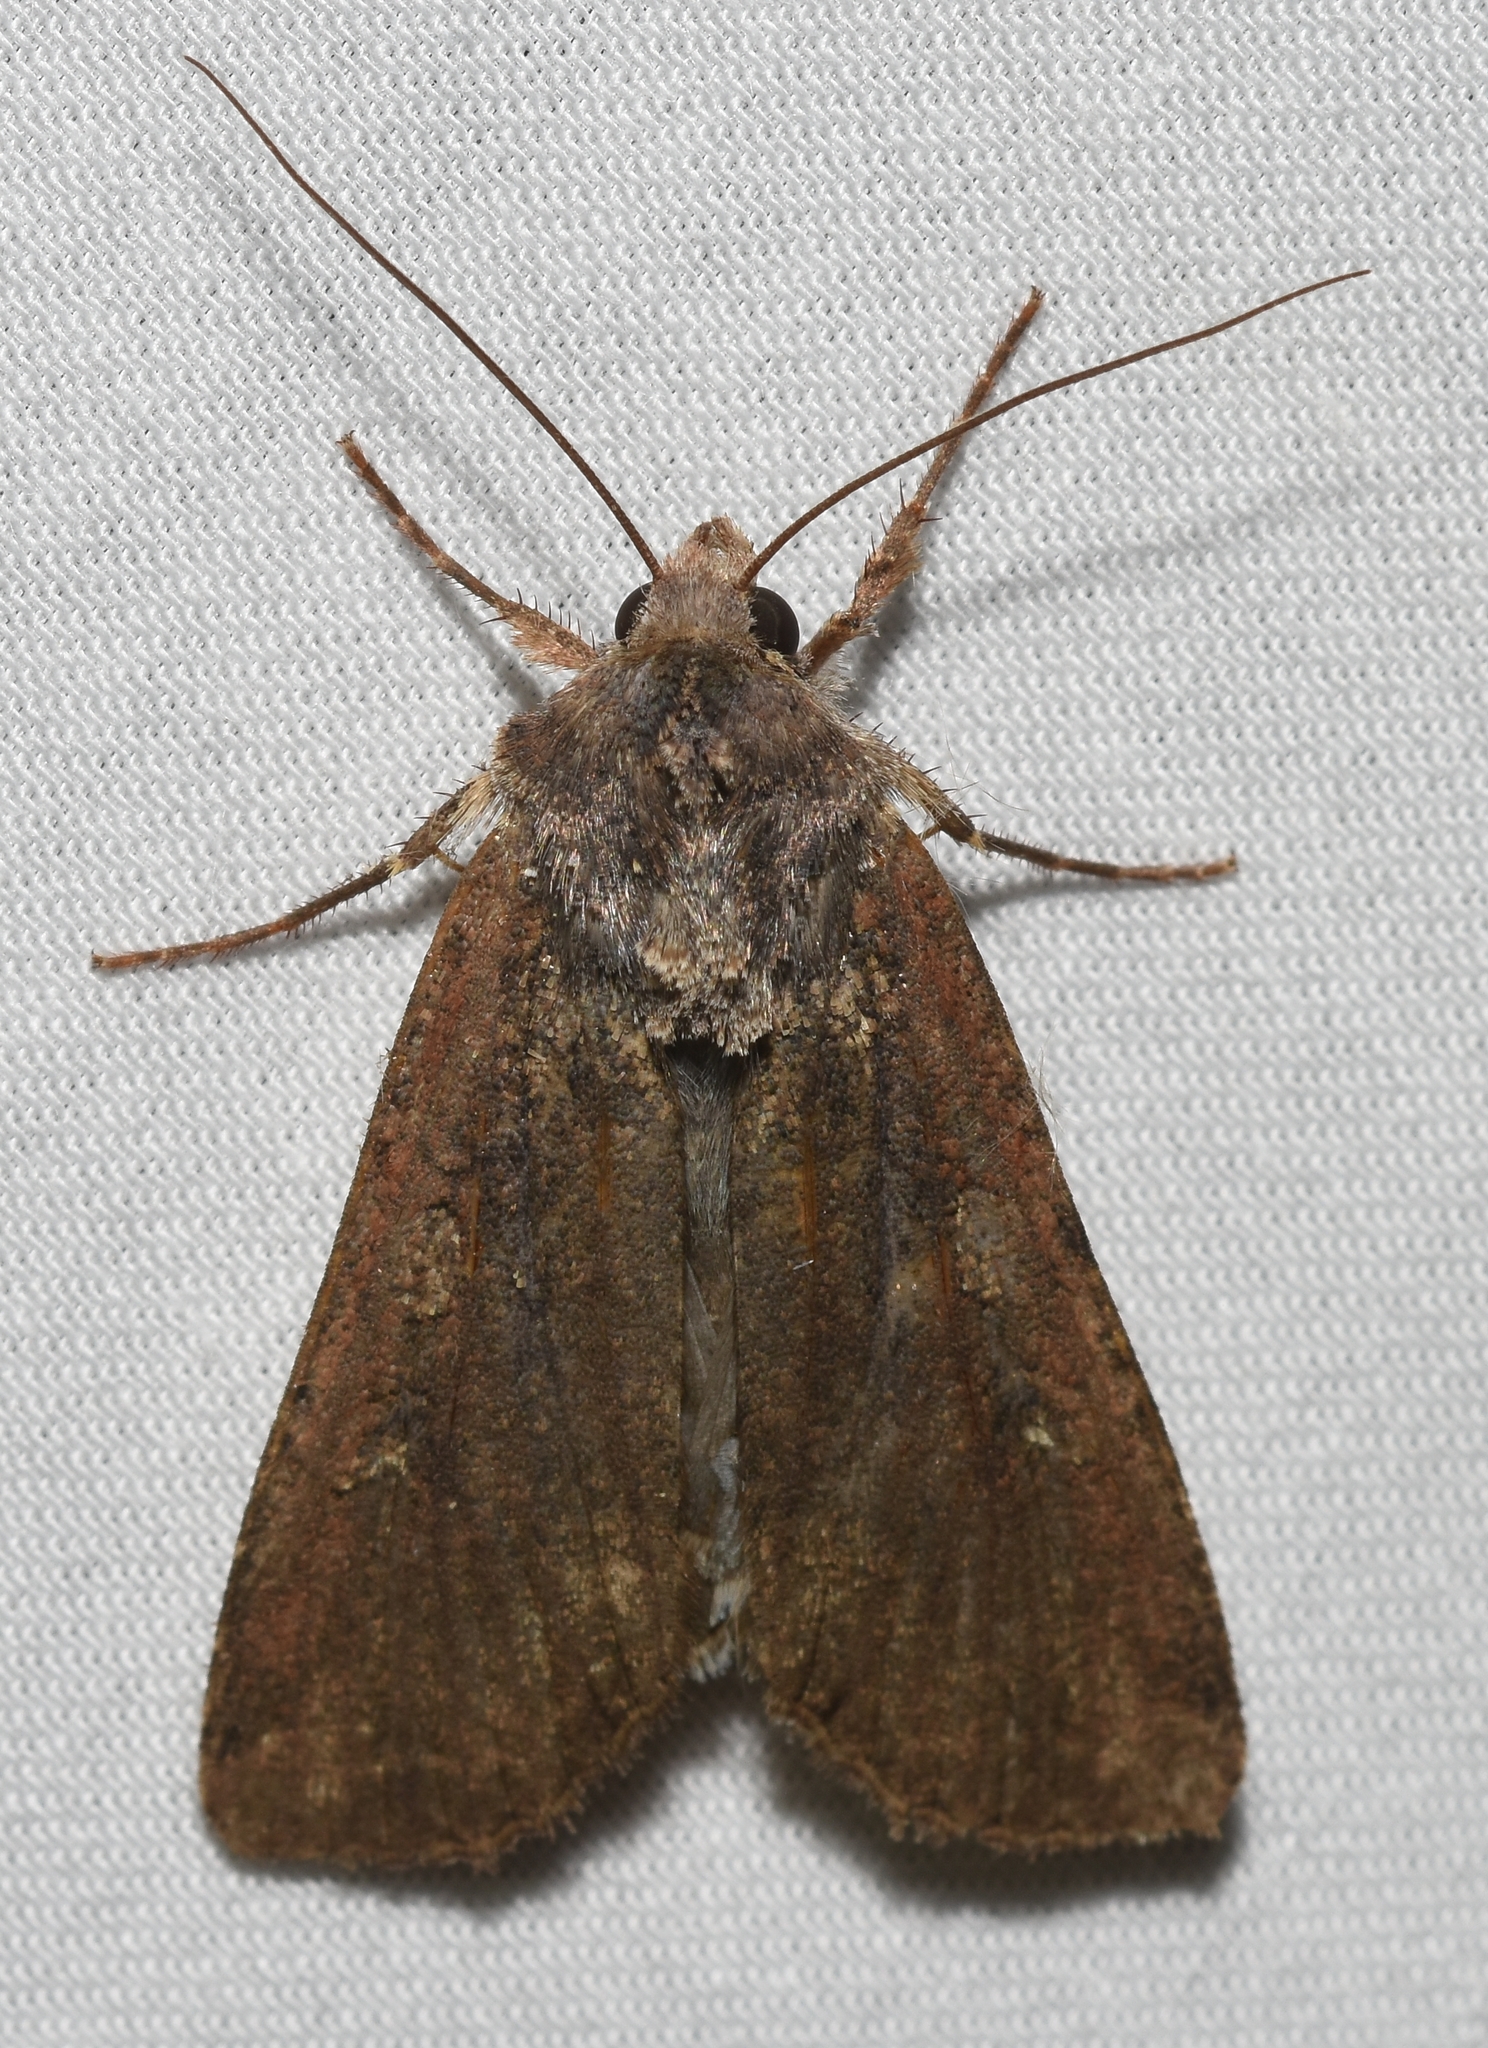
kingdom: Animalia
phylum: Arthropoda
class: Insecta
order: Lepidoptera
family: Noctuidae
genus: Peridroma
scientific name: Peridroma saucia
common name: Pearly underwing
